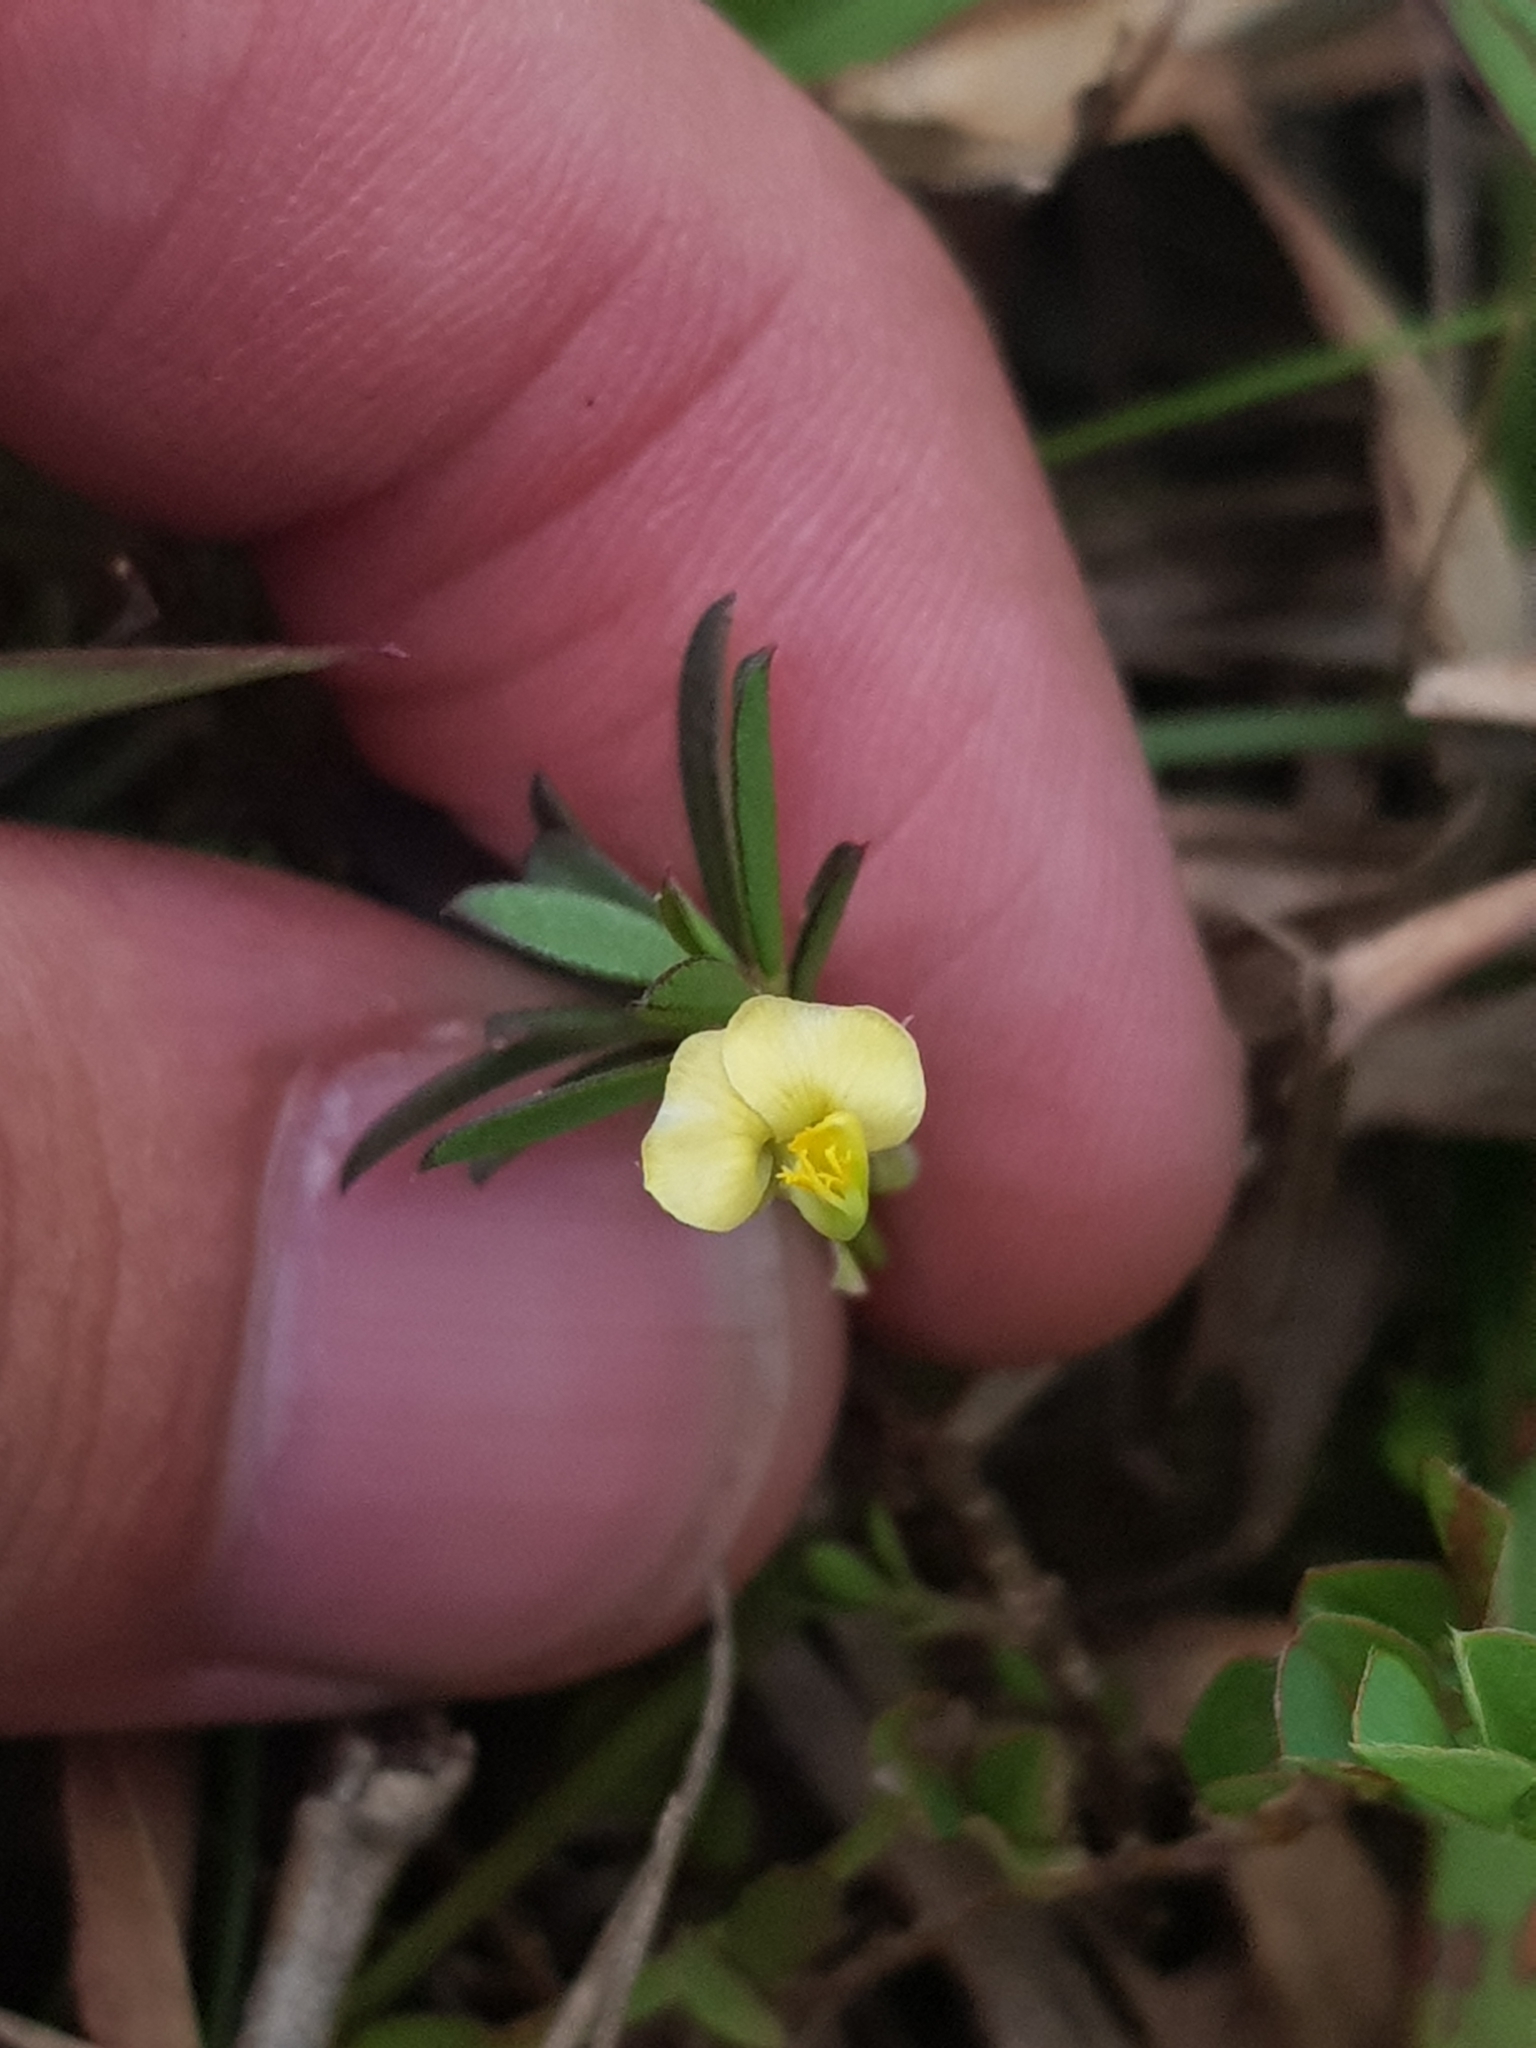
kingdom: Plantae
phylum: Tracheophyta
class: Magnoliopsida
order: Fabales
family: Polygalaceae
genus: Polygala
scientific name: Polygala glaucoides
